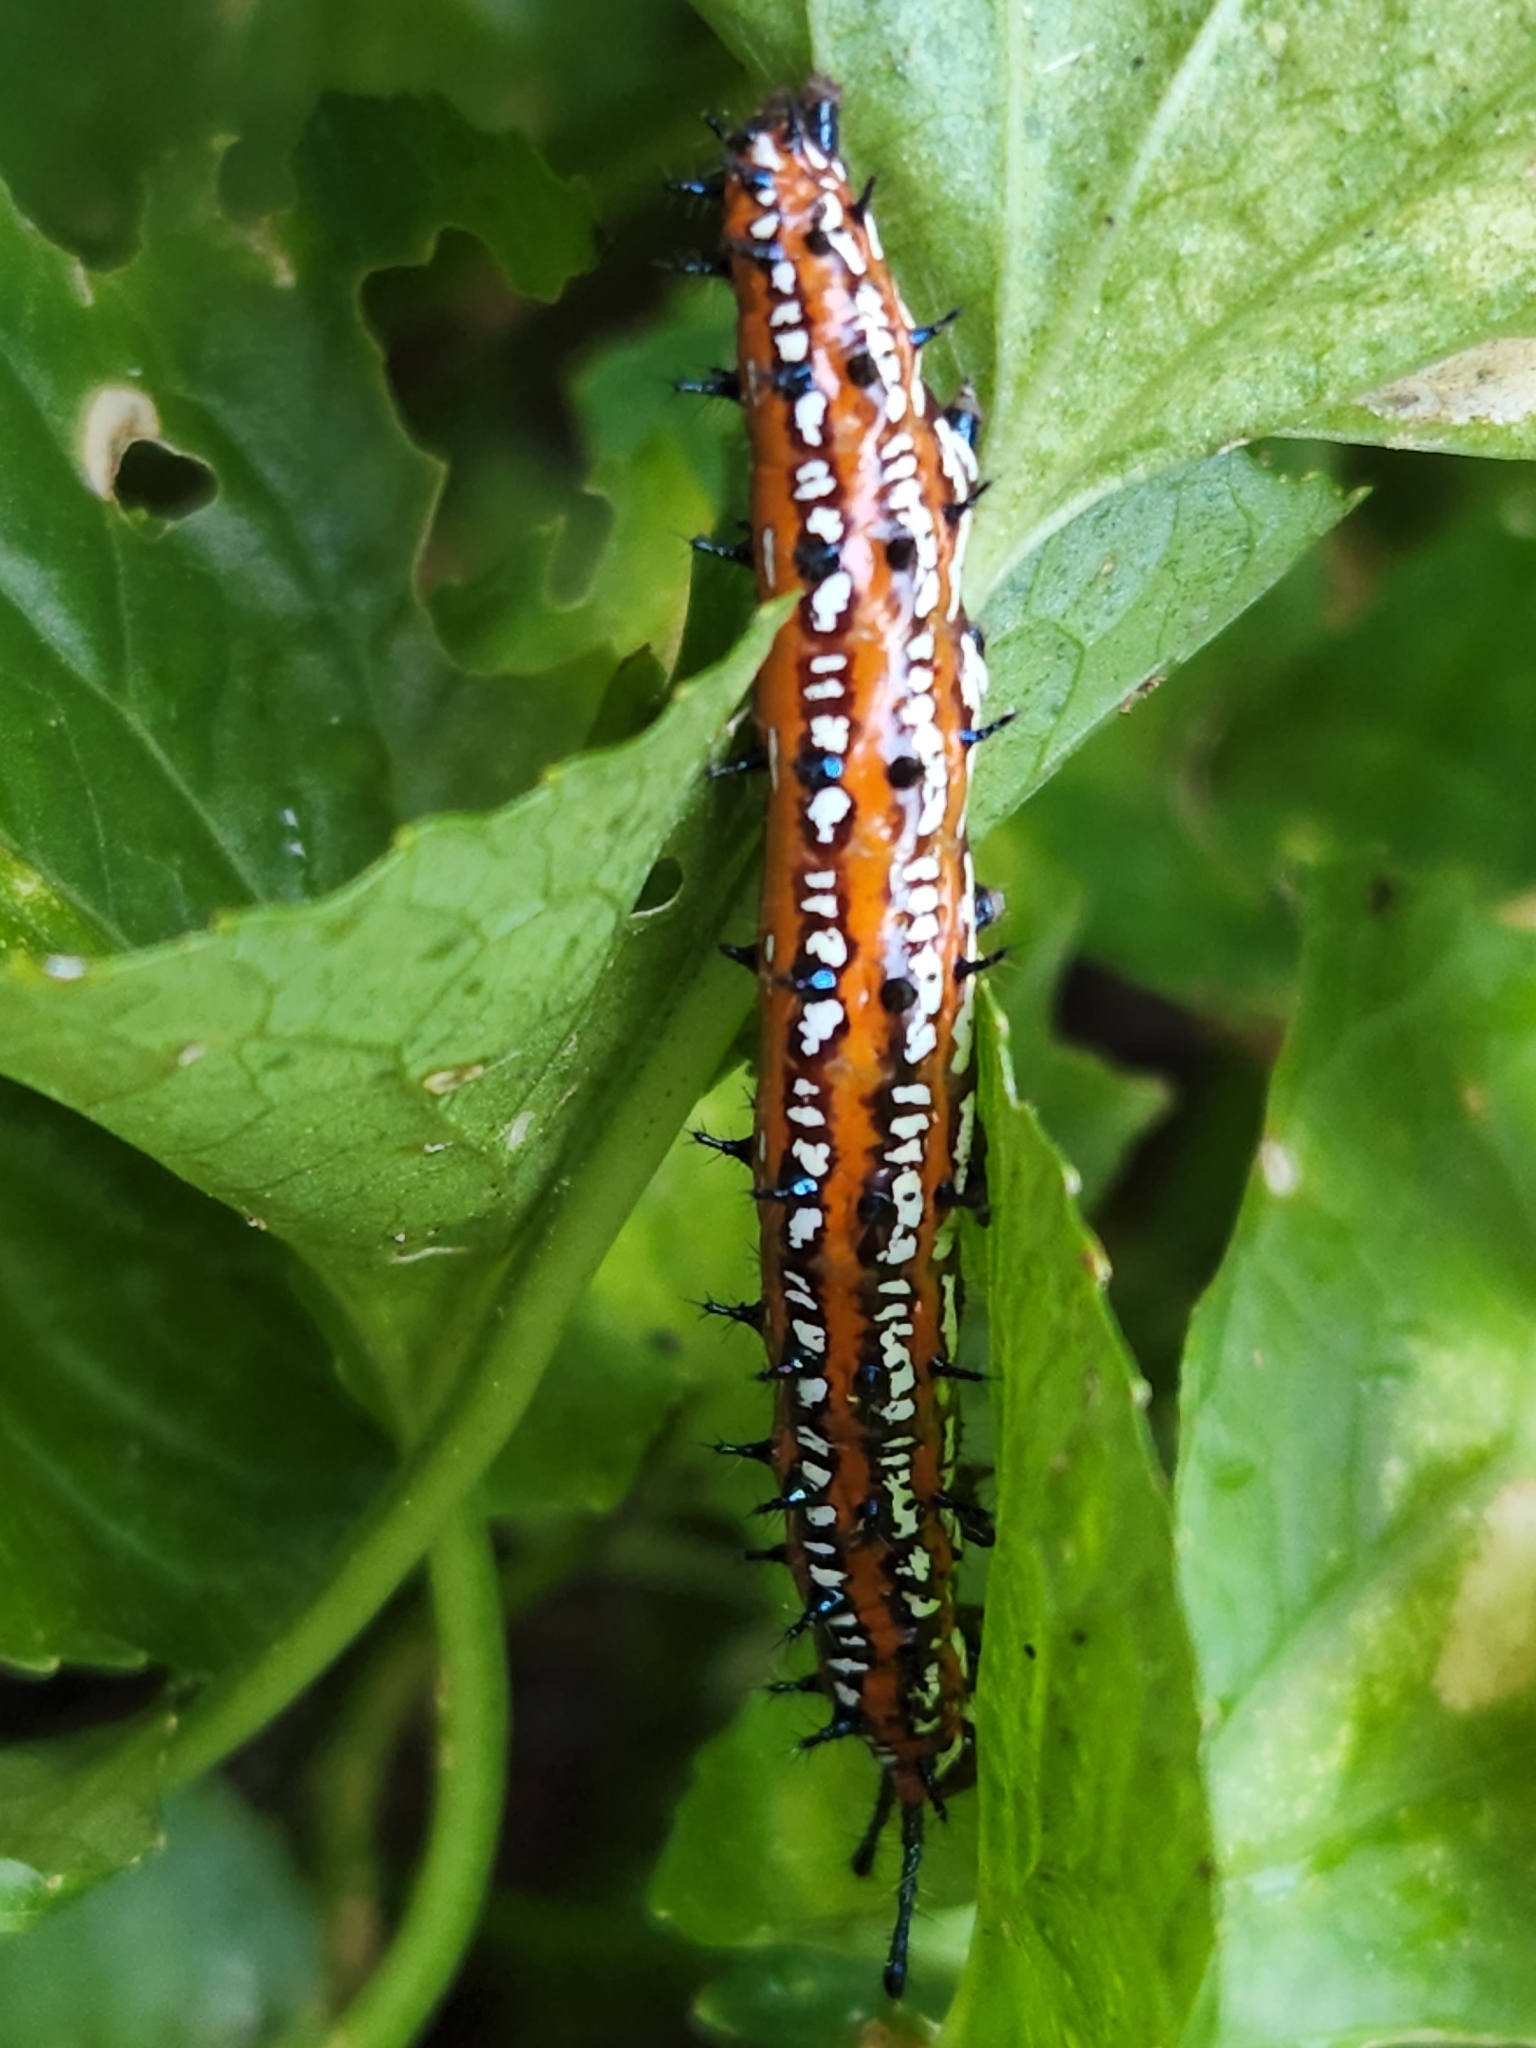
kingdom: Animalia
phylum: Arthropoda
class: Insecta
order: Lepidoptera
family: Nymphalidae
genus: Euptoieta
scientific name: Euptoieta claudia
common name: Variegated fritillary
